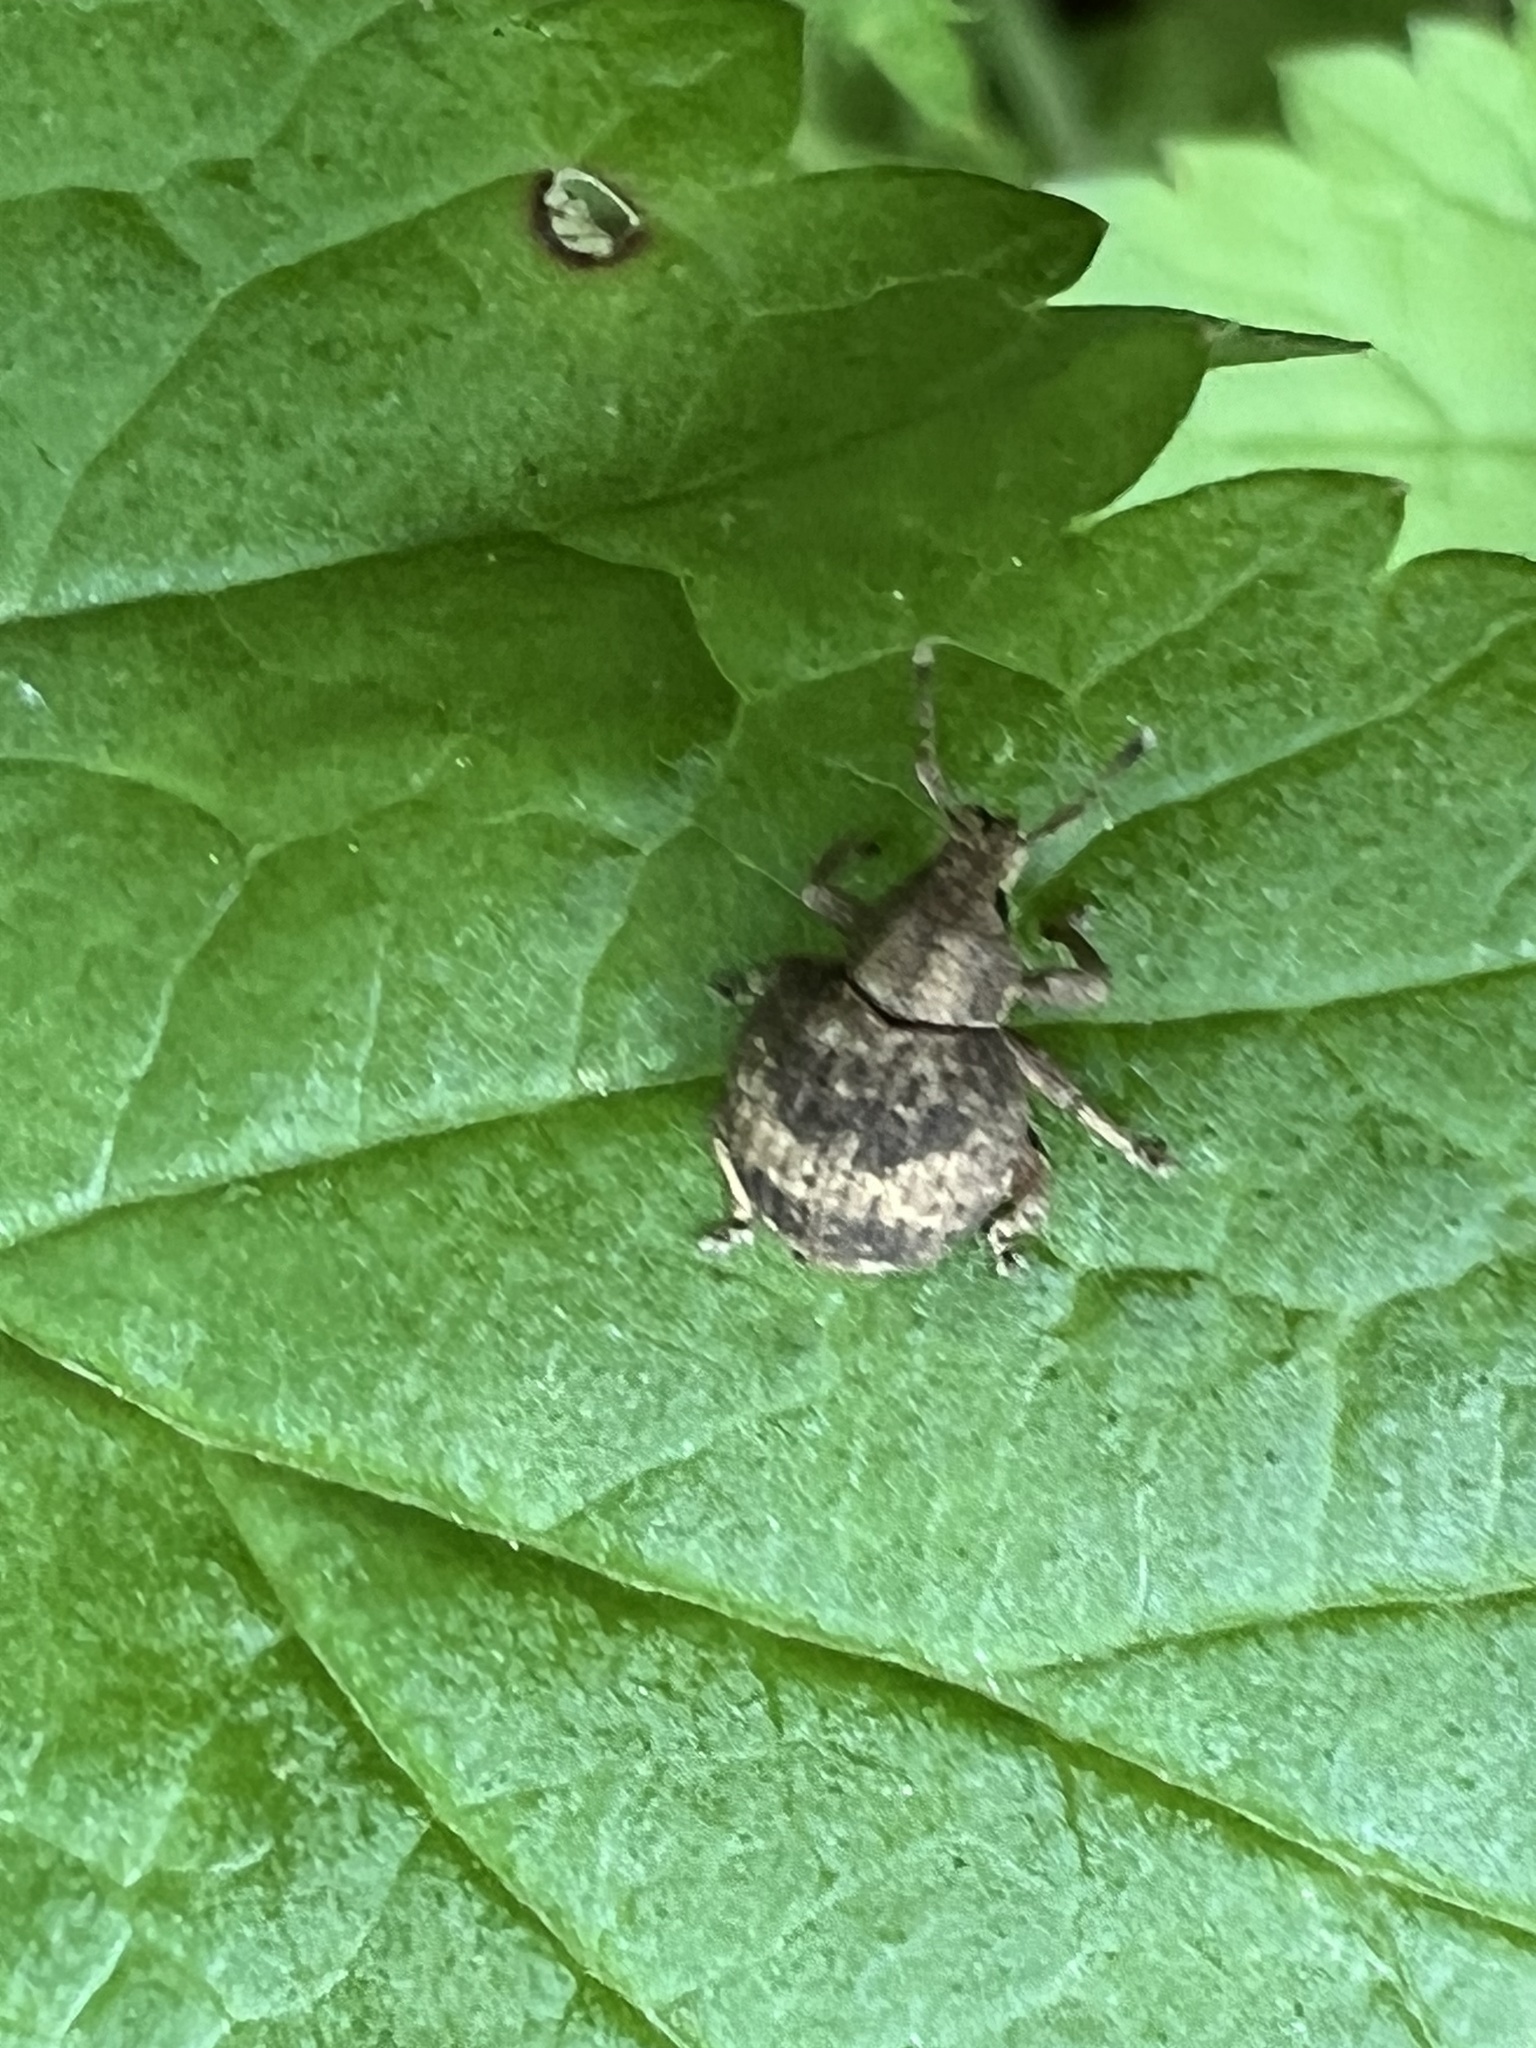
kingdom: Animalia
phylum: Arthropoda
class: Insecta
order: Coleoptera
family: Curculionidae
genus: Pseudocneorhinus
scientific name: Pseudocneorhinus bifasciatus
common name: Two-banded japanese weevil
